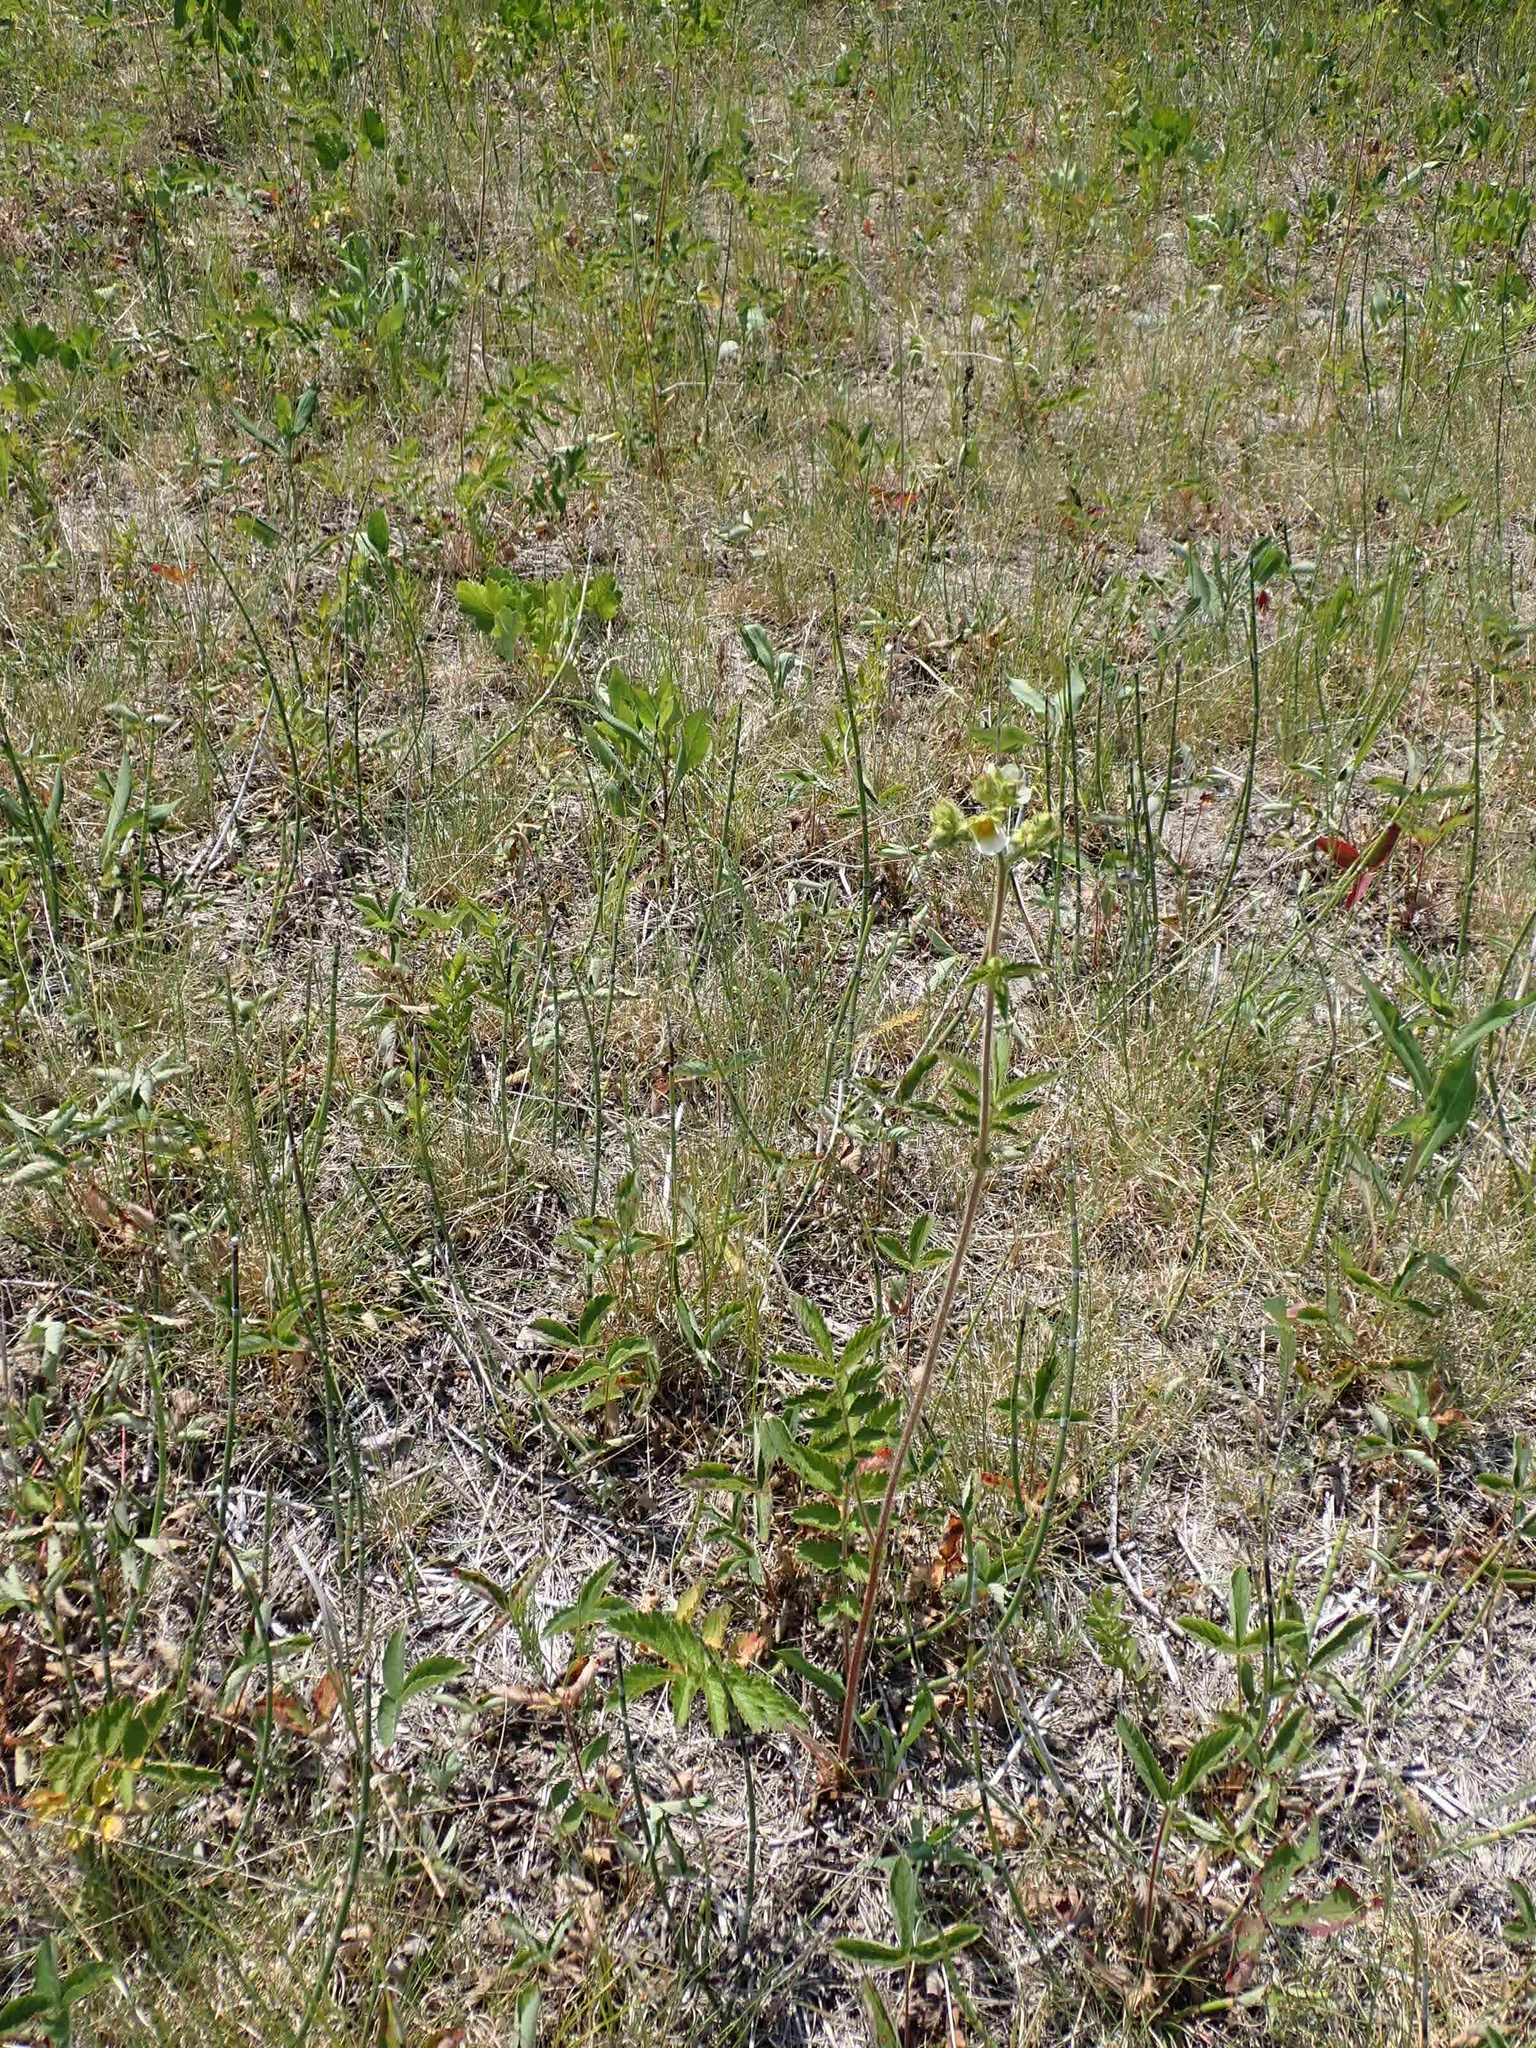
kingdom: Plantae
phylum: Tracheophyta
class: Magnoliopsida
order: Rosales
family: Rosaceae
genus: Drymocallis
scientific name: Drymocallis arguta
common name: Tall cinquefoil
